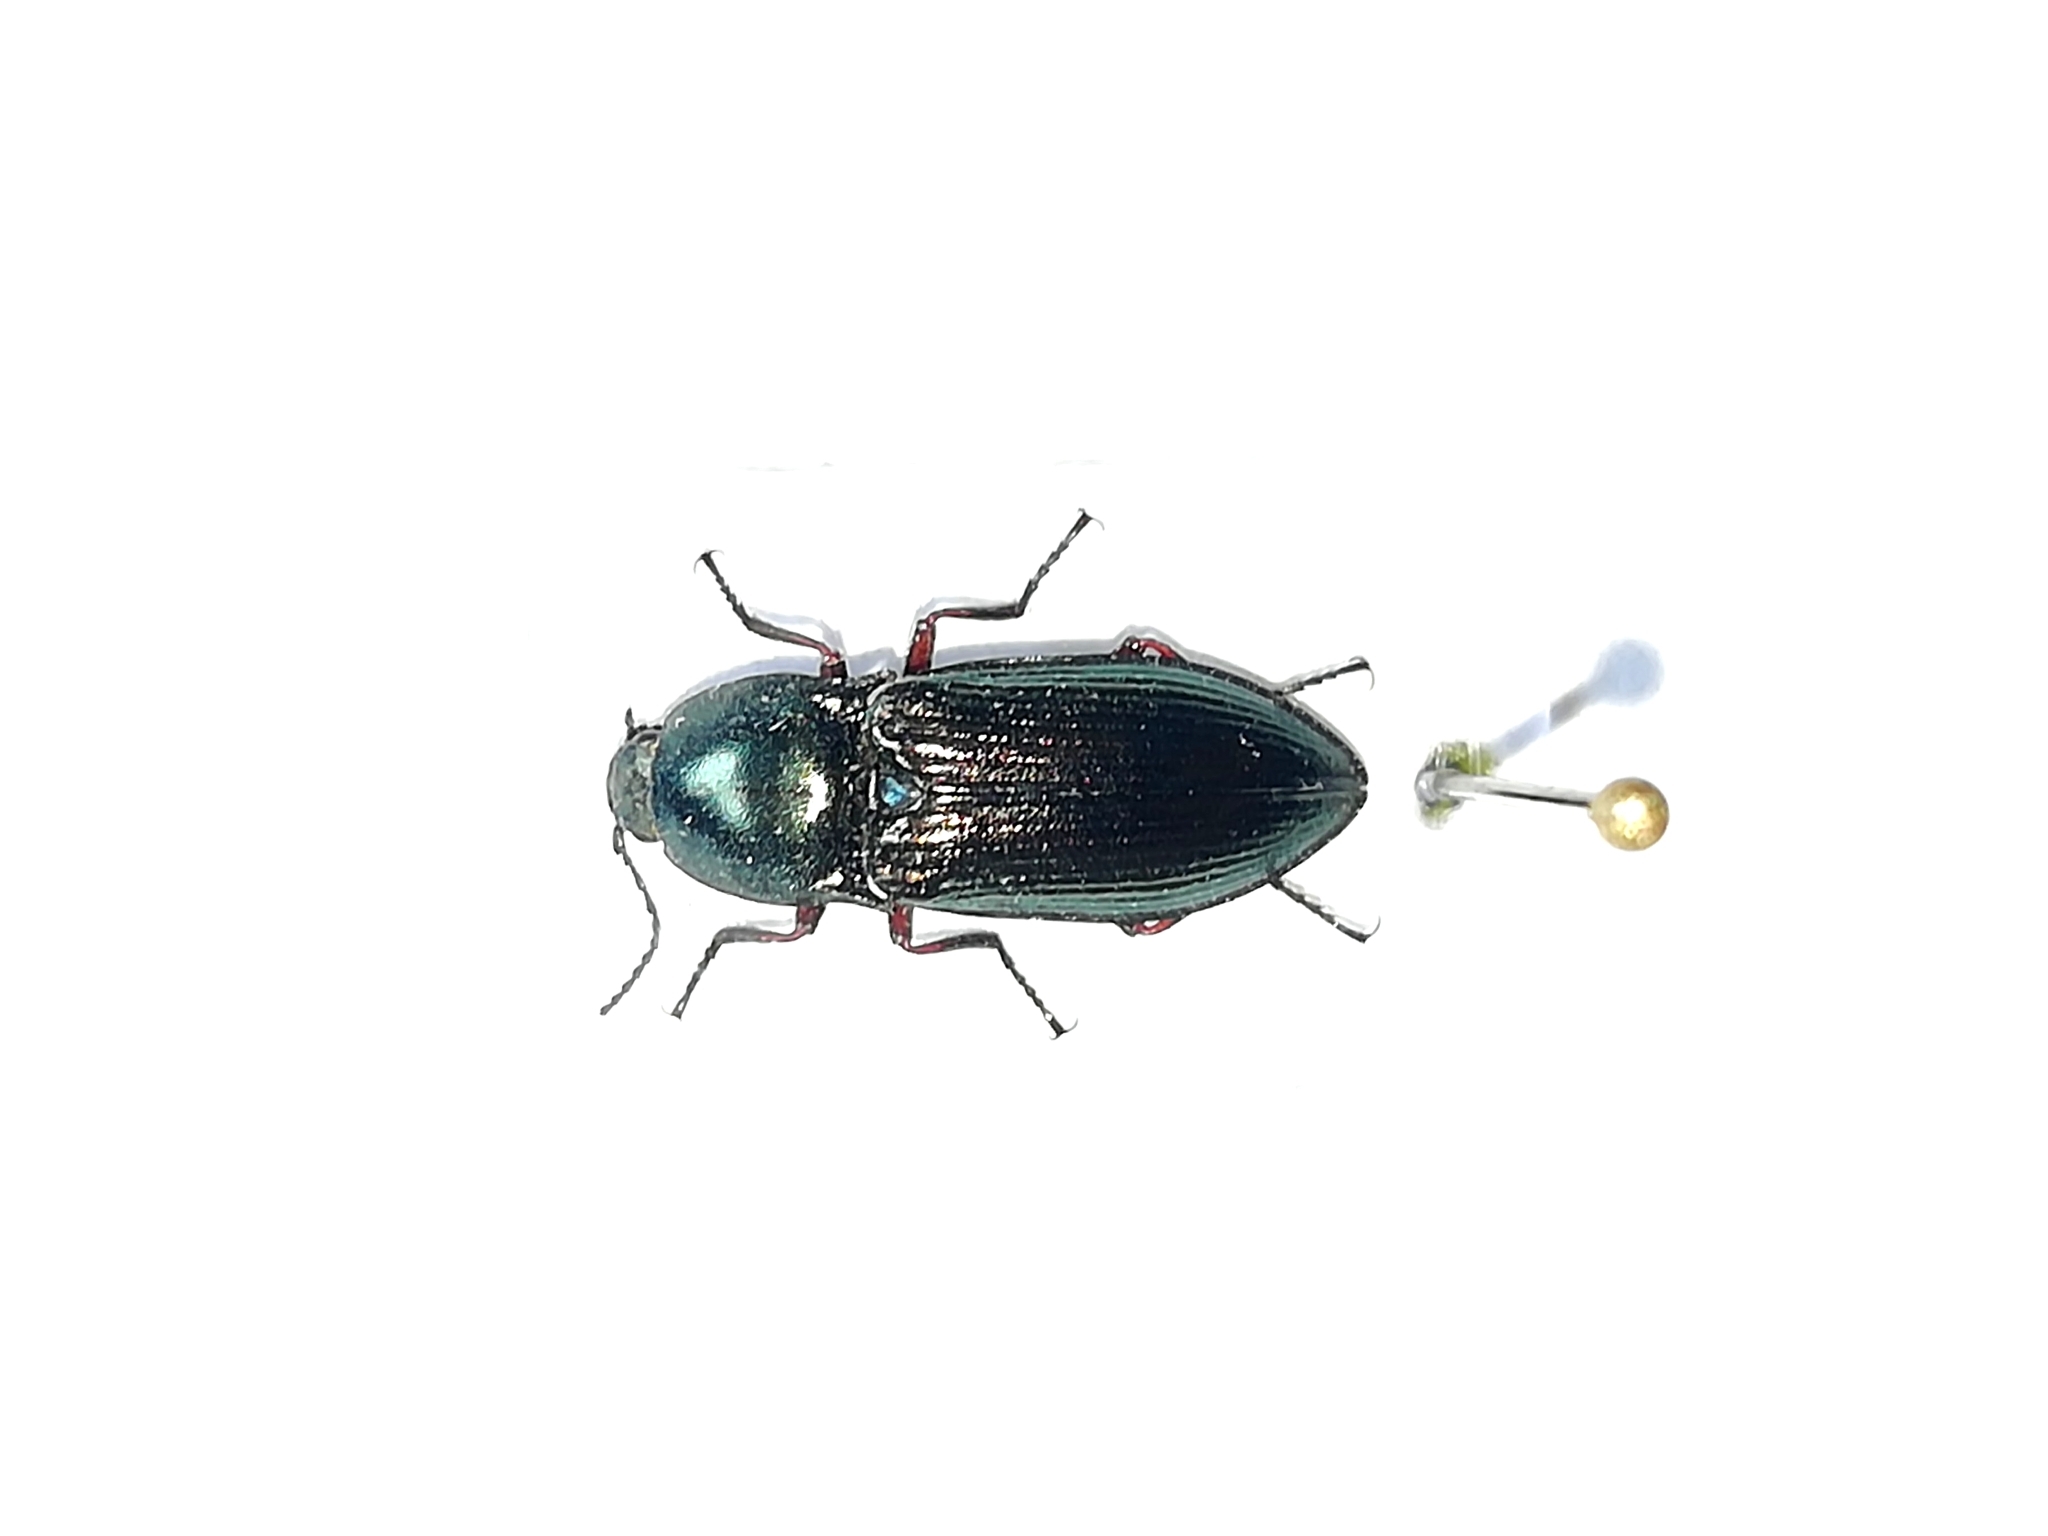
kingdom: Animalia
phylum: Arthropoda
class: Insecta
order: Coleoptera
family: Elateridae
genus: Selatosomus
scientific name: Selatosomus aeneus
